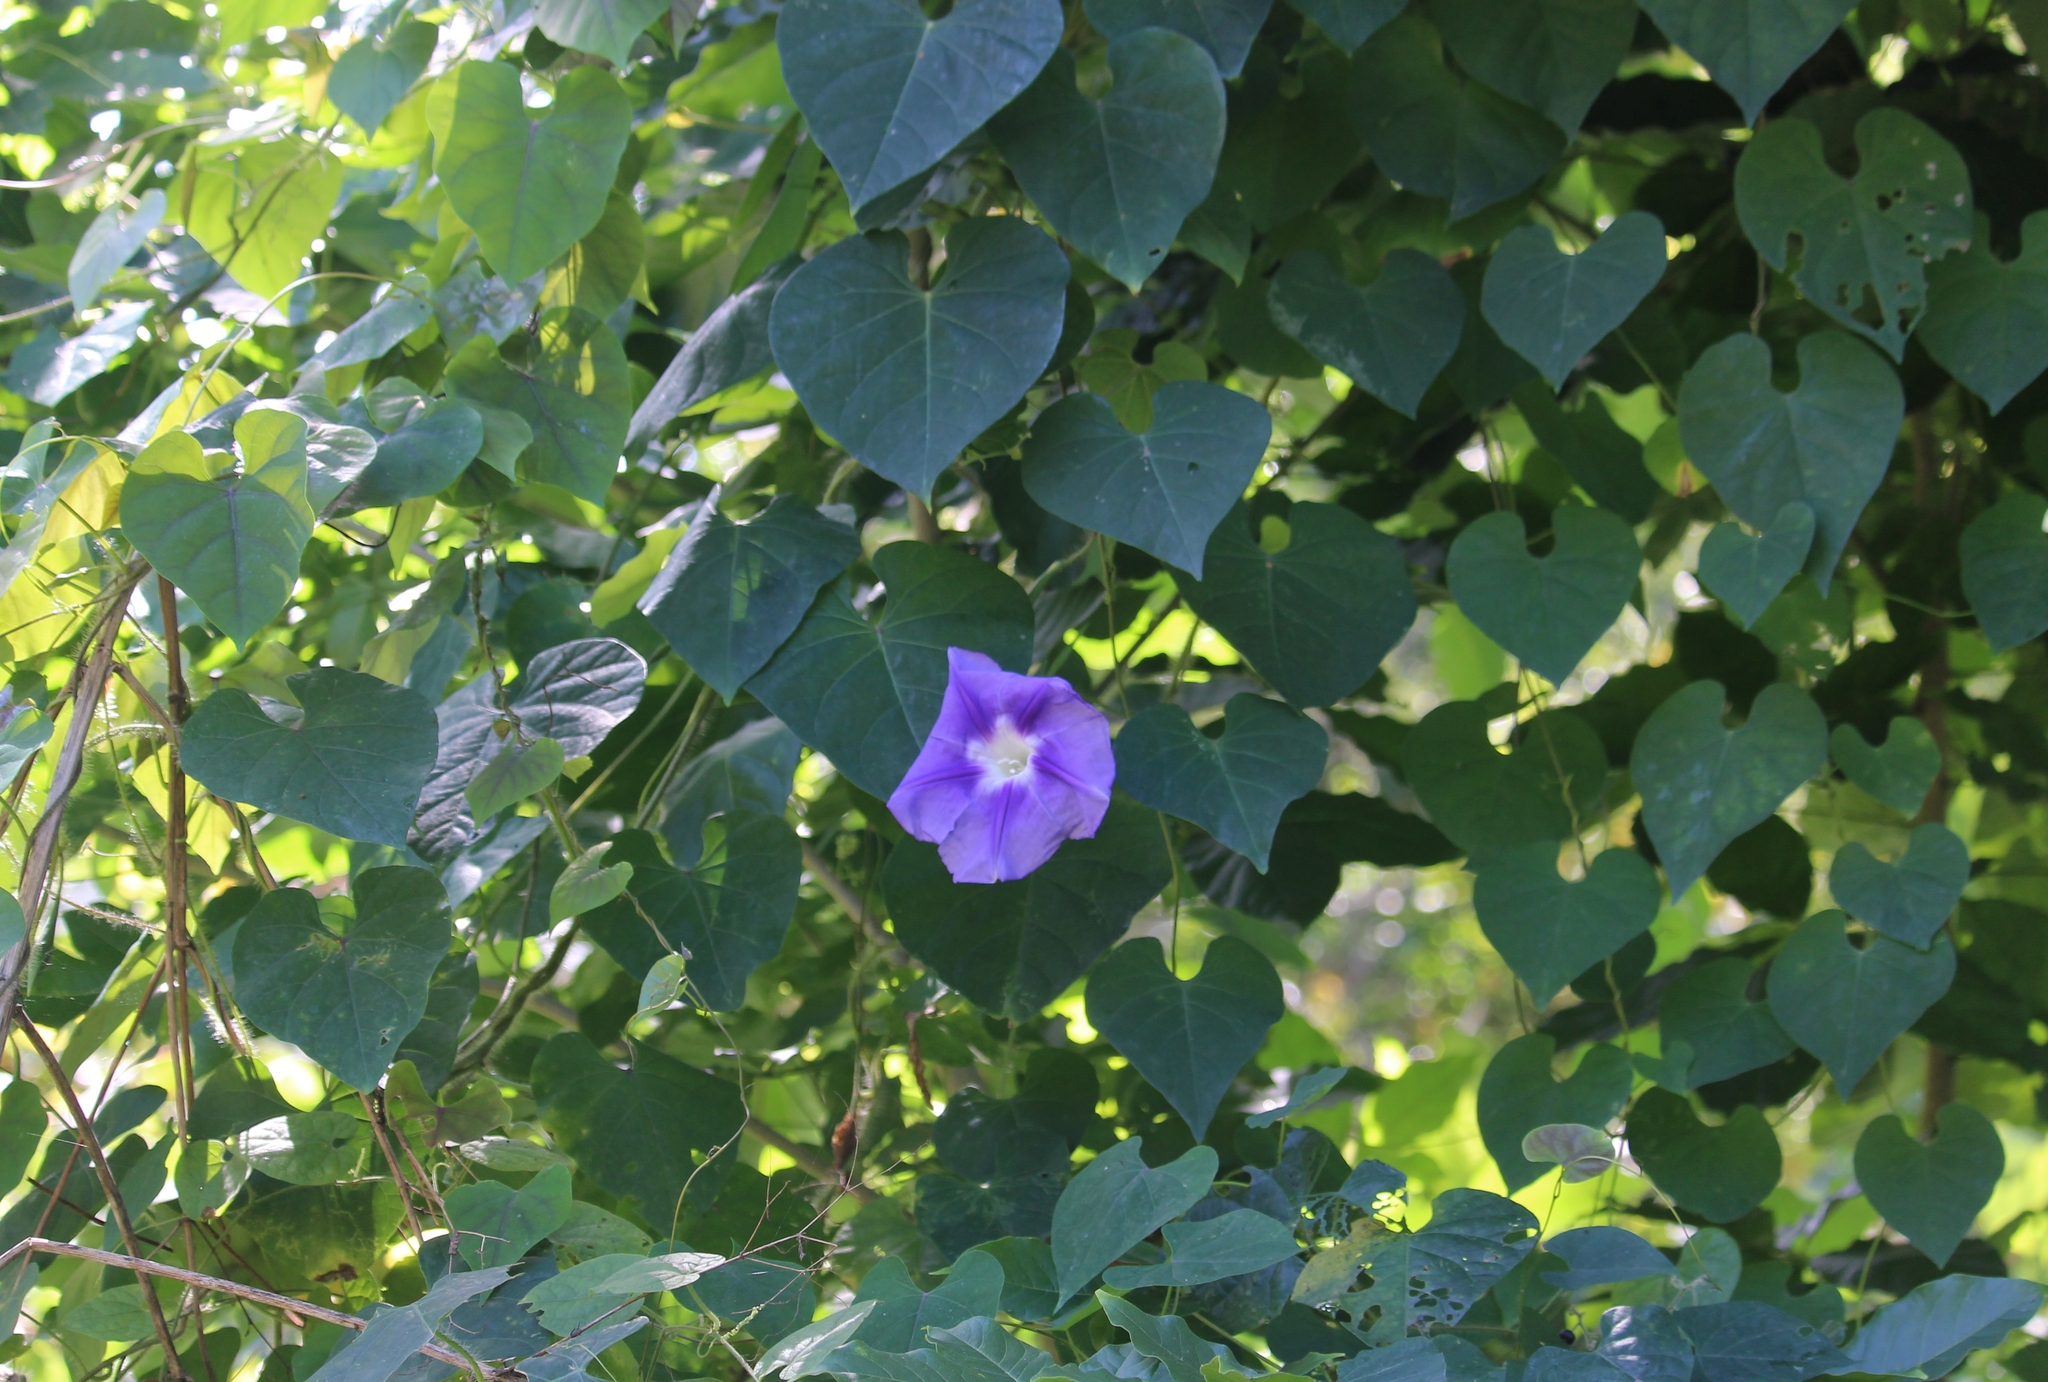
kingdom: Plantae
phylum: Tracheophyta
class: Magnoliopsida
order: Solanales
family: Convolvulaceae
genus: Ipomoea
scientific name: Ipomoea clavata
